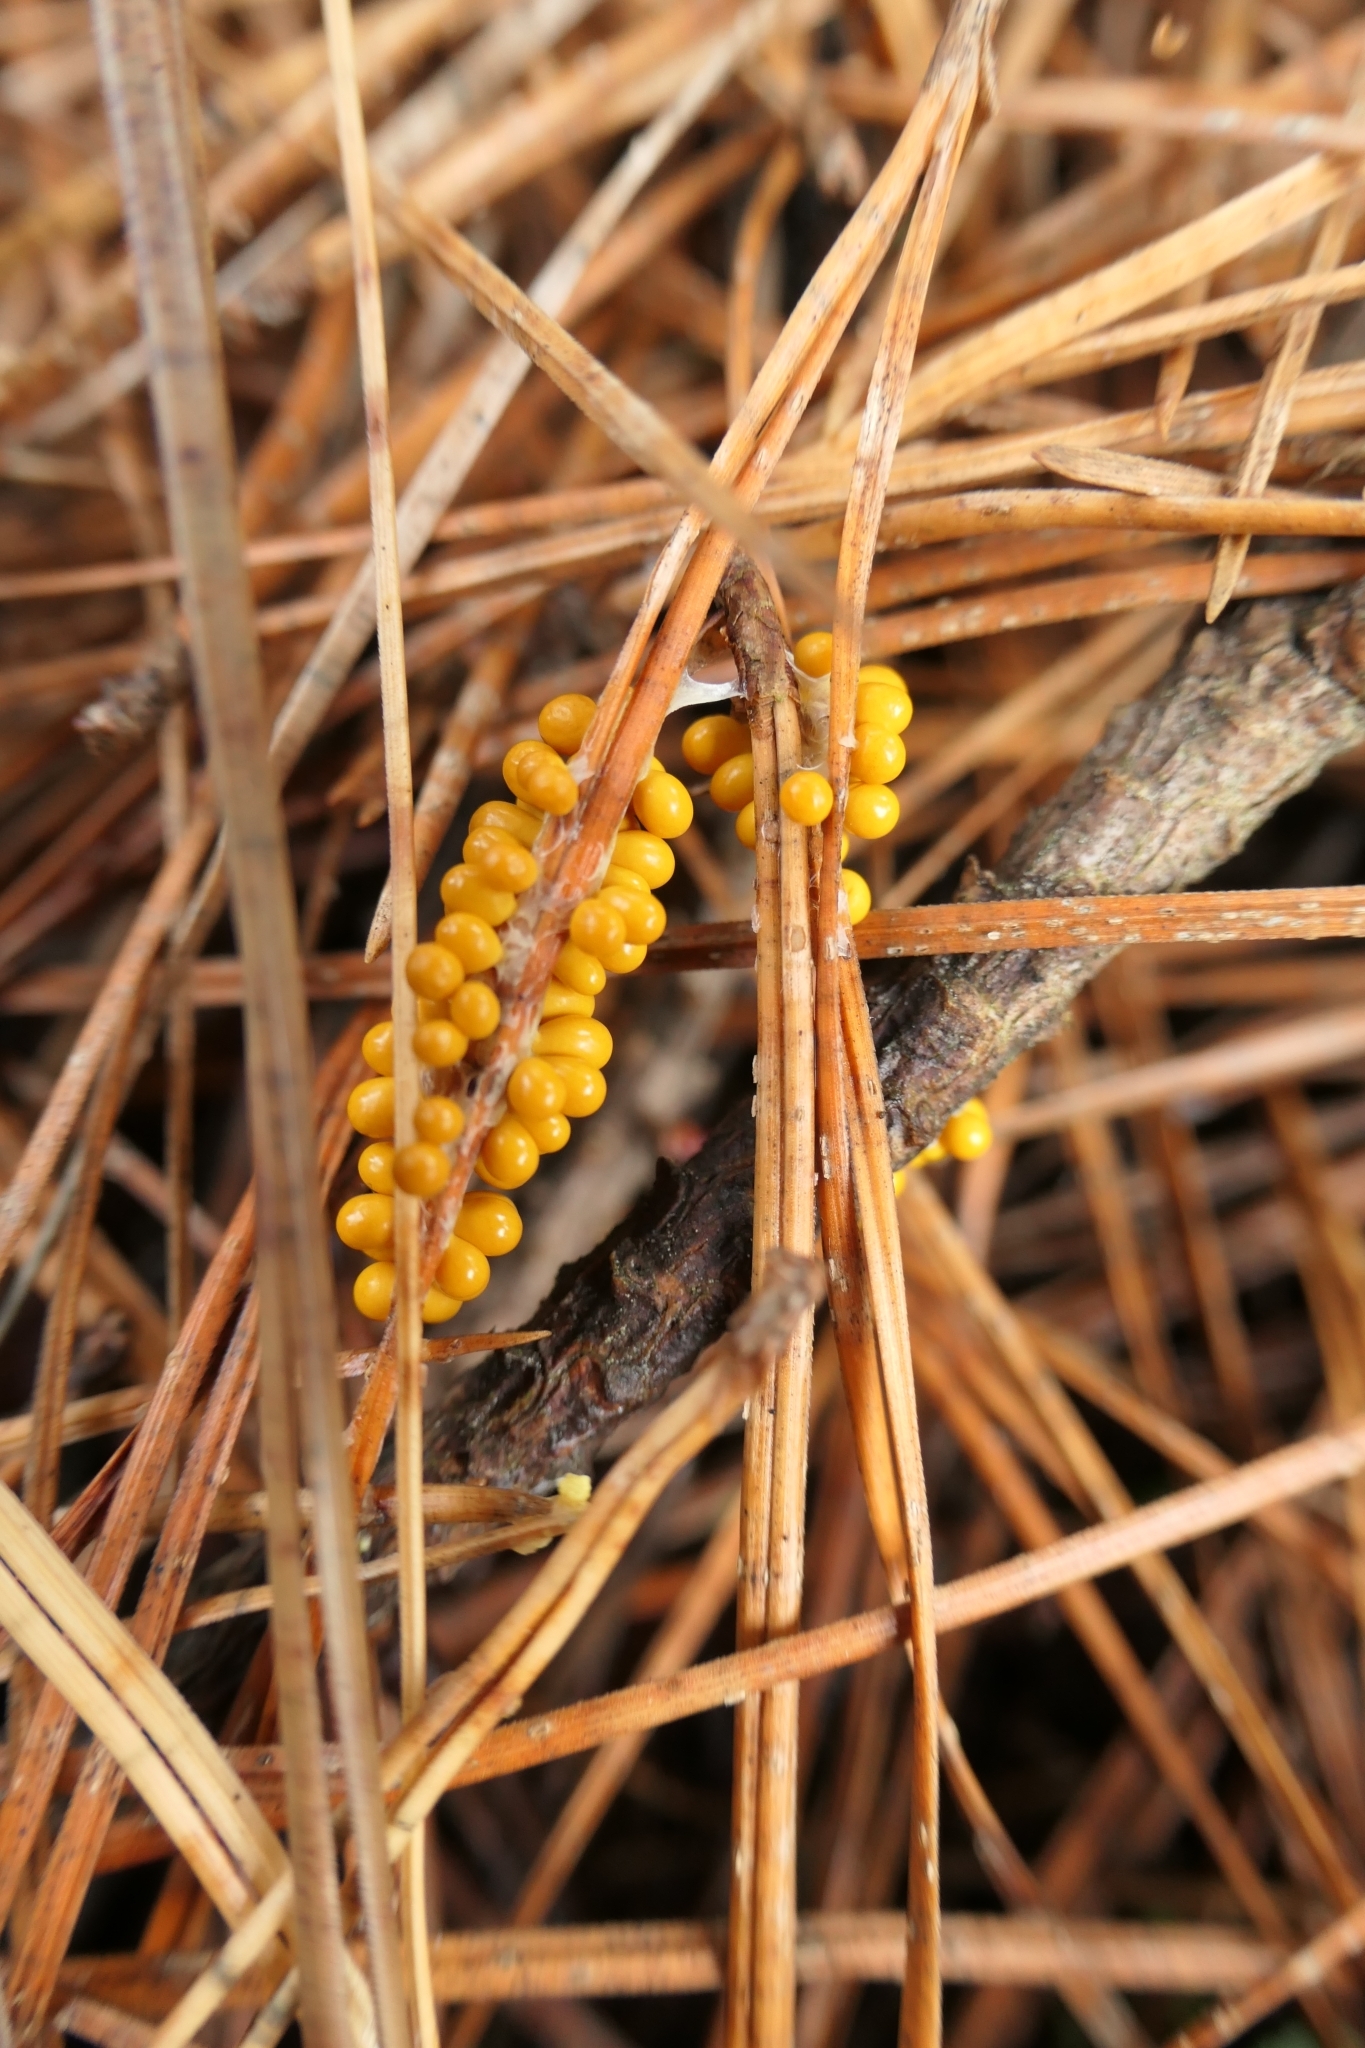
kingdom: Protozoa
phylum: Mycetozoa
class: Myxomycetes
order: Physarales
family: Physaraceae
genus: Leocarpus
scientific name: Leocarpus fragilis
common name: Insect-egg slime
